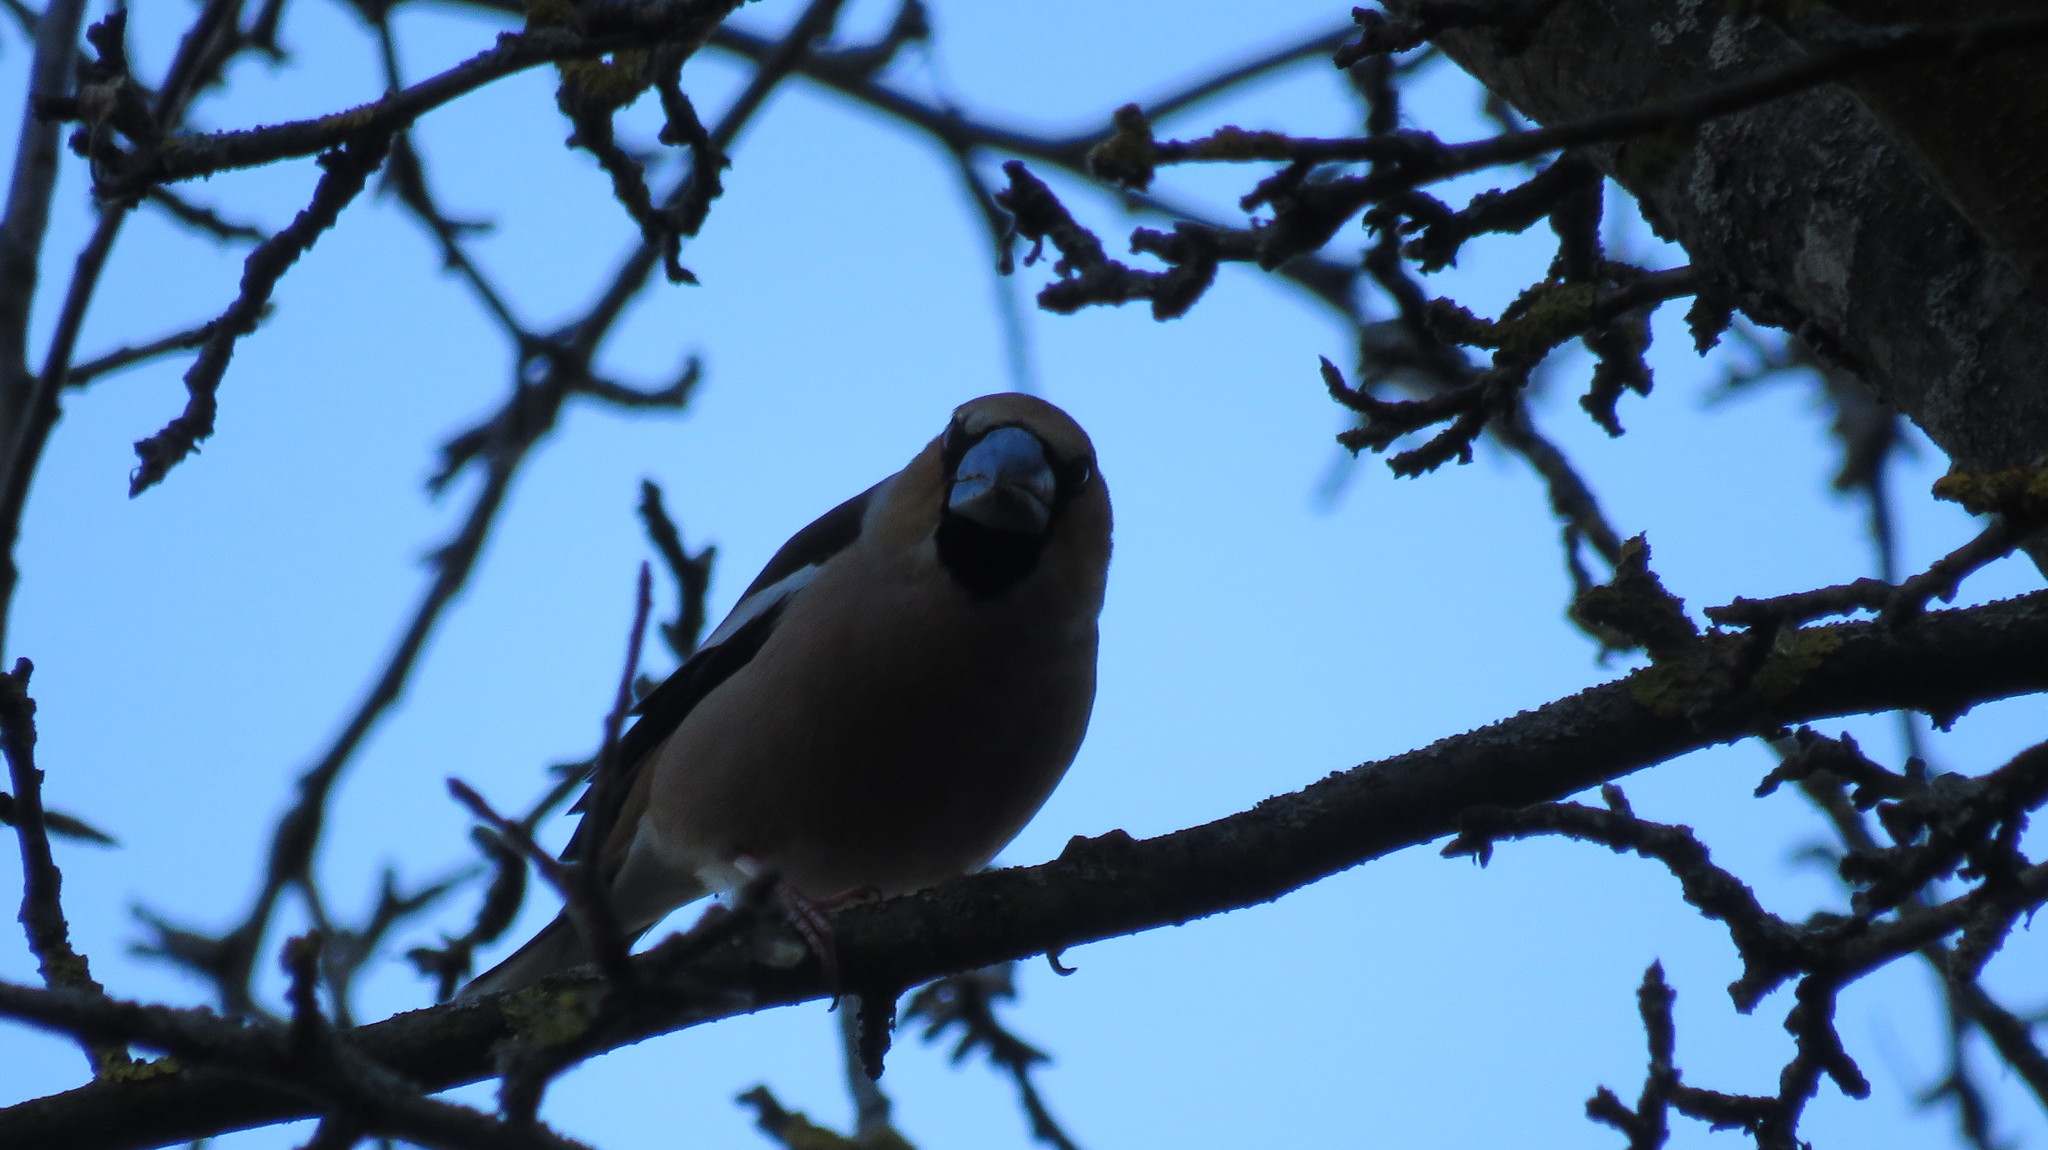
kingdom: Animalia
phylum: Chordata
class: Aves
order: Passeriformes
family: Fringillidae
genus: Coccothraustes
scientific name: Coccothraustes coccothraustes
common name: Hawfinch
